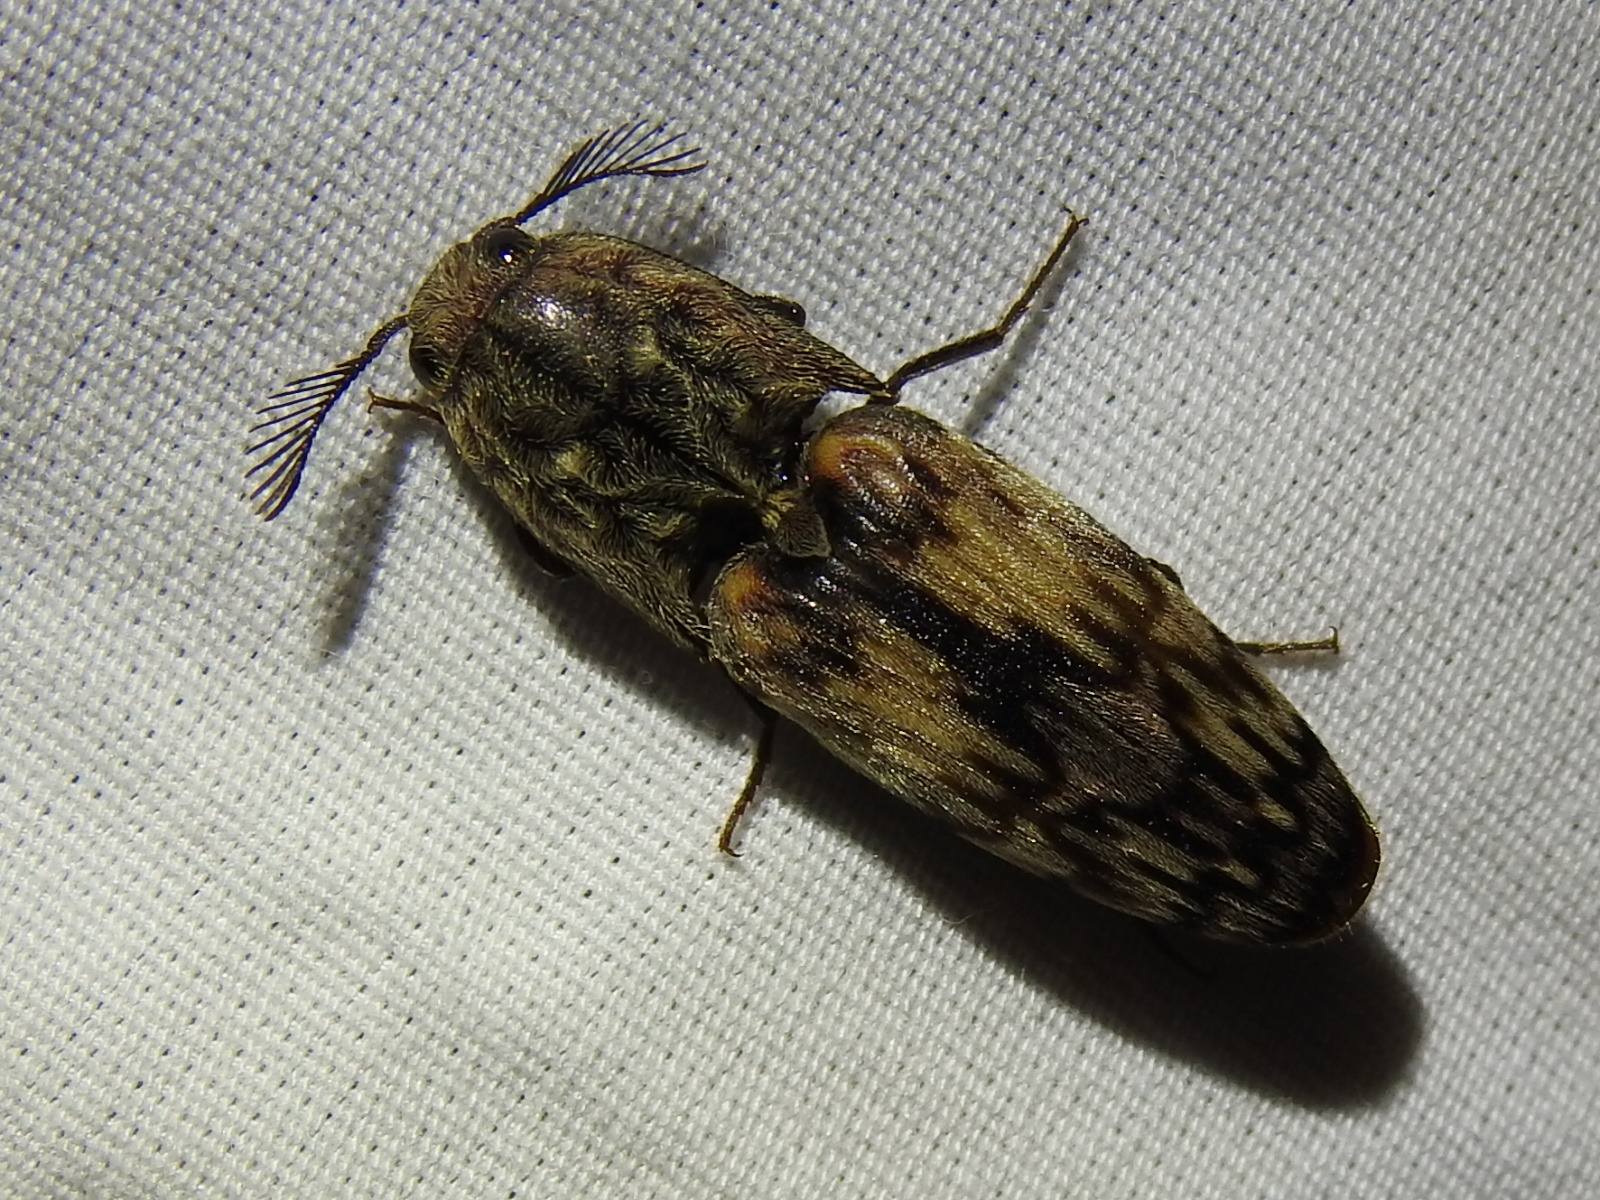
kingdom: Animalia
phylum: Arthropoda
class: Insecta
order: Coleoptera
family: Elateridae
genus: Pherhimius
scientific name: Pherhimius fascicularis
